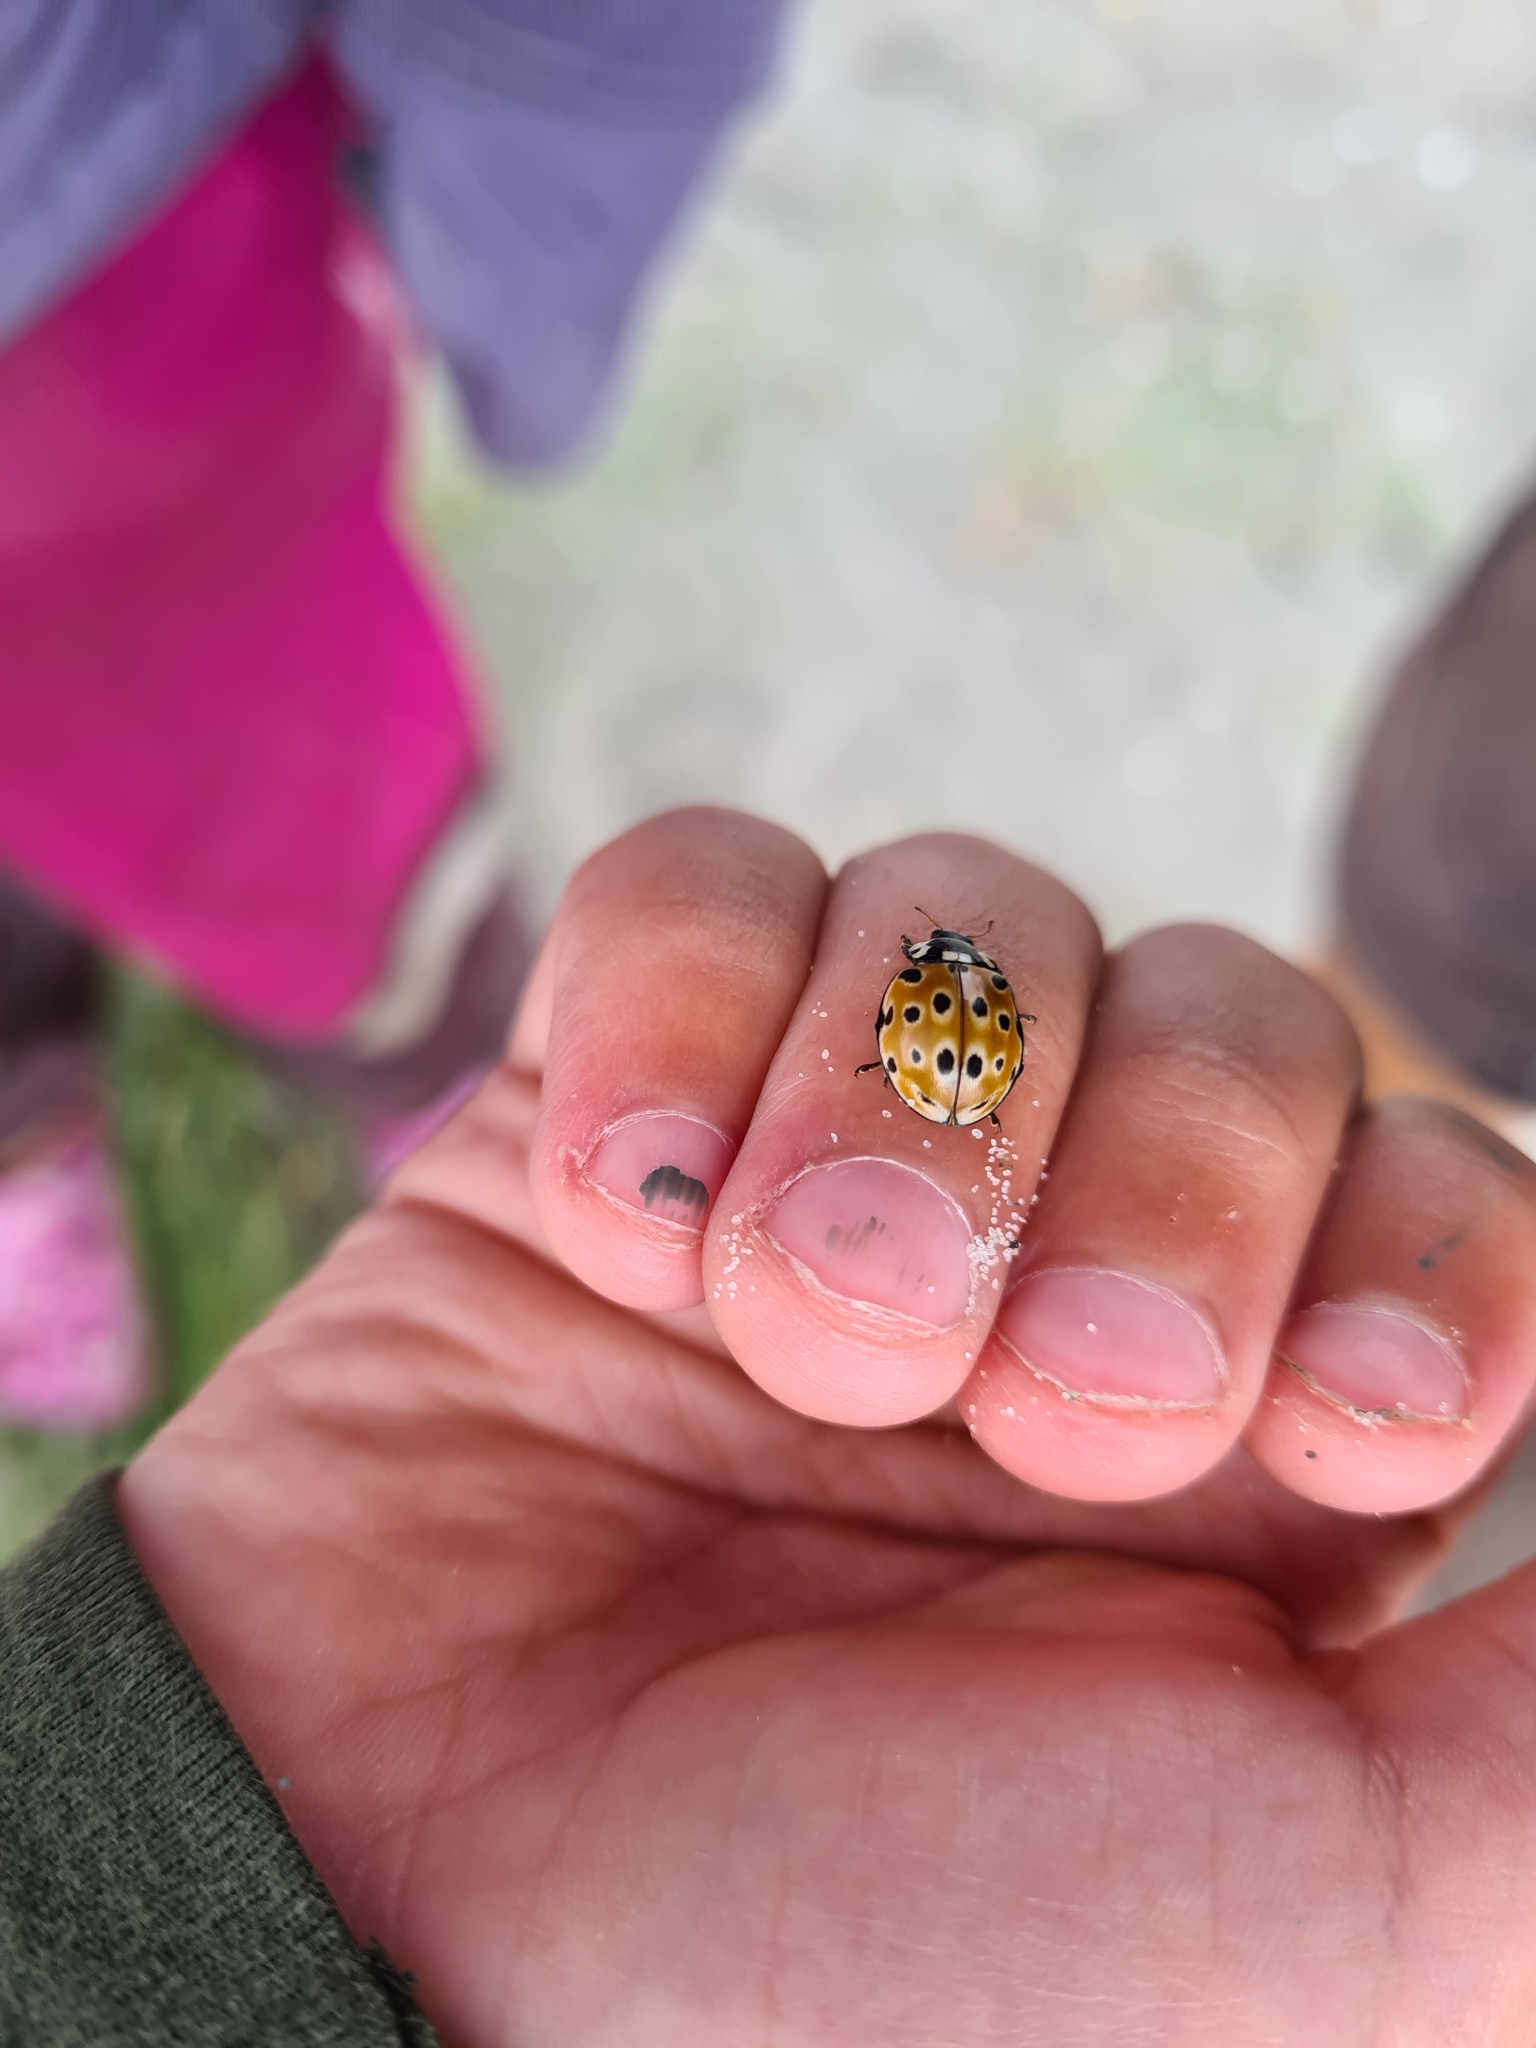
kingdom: Animalia
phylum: Arthropoda
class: Insecta
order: Coleoptera
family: Coccinellidae
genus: Anatis
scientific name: Anatis ocellata
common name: Eyed ladybird
